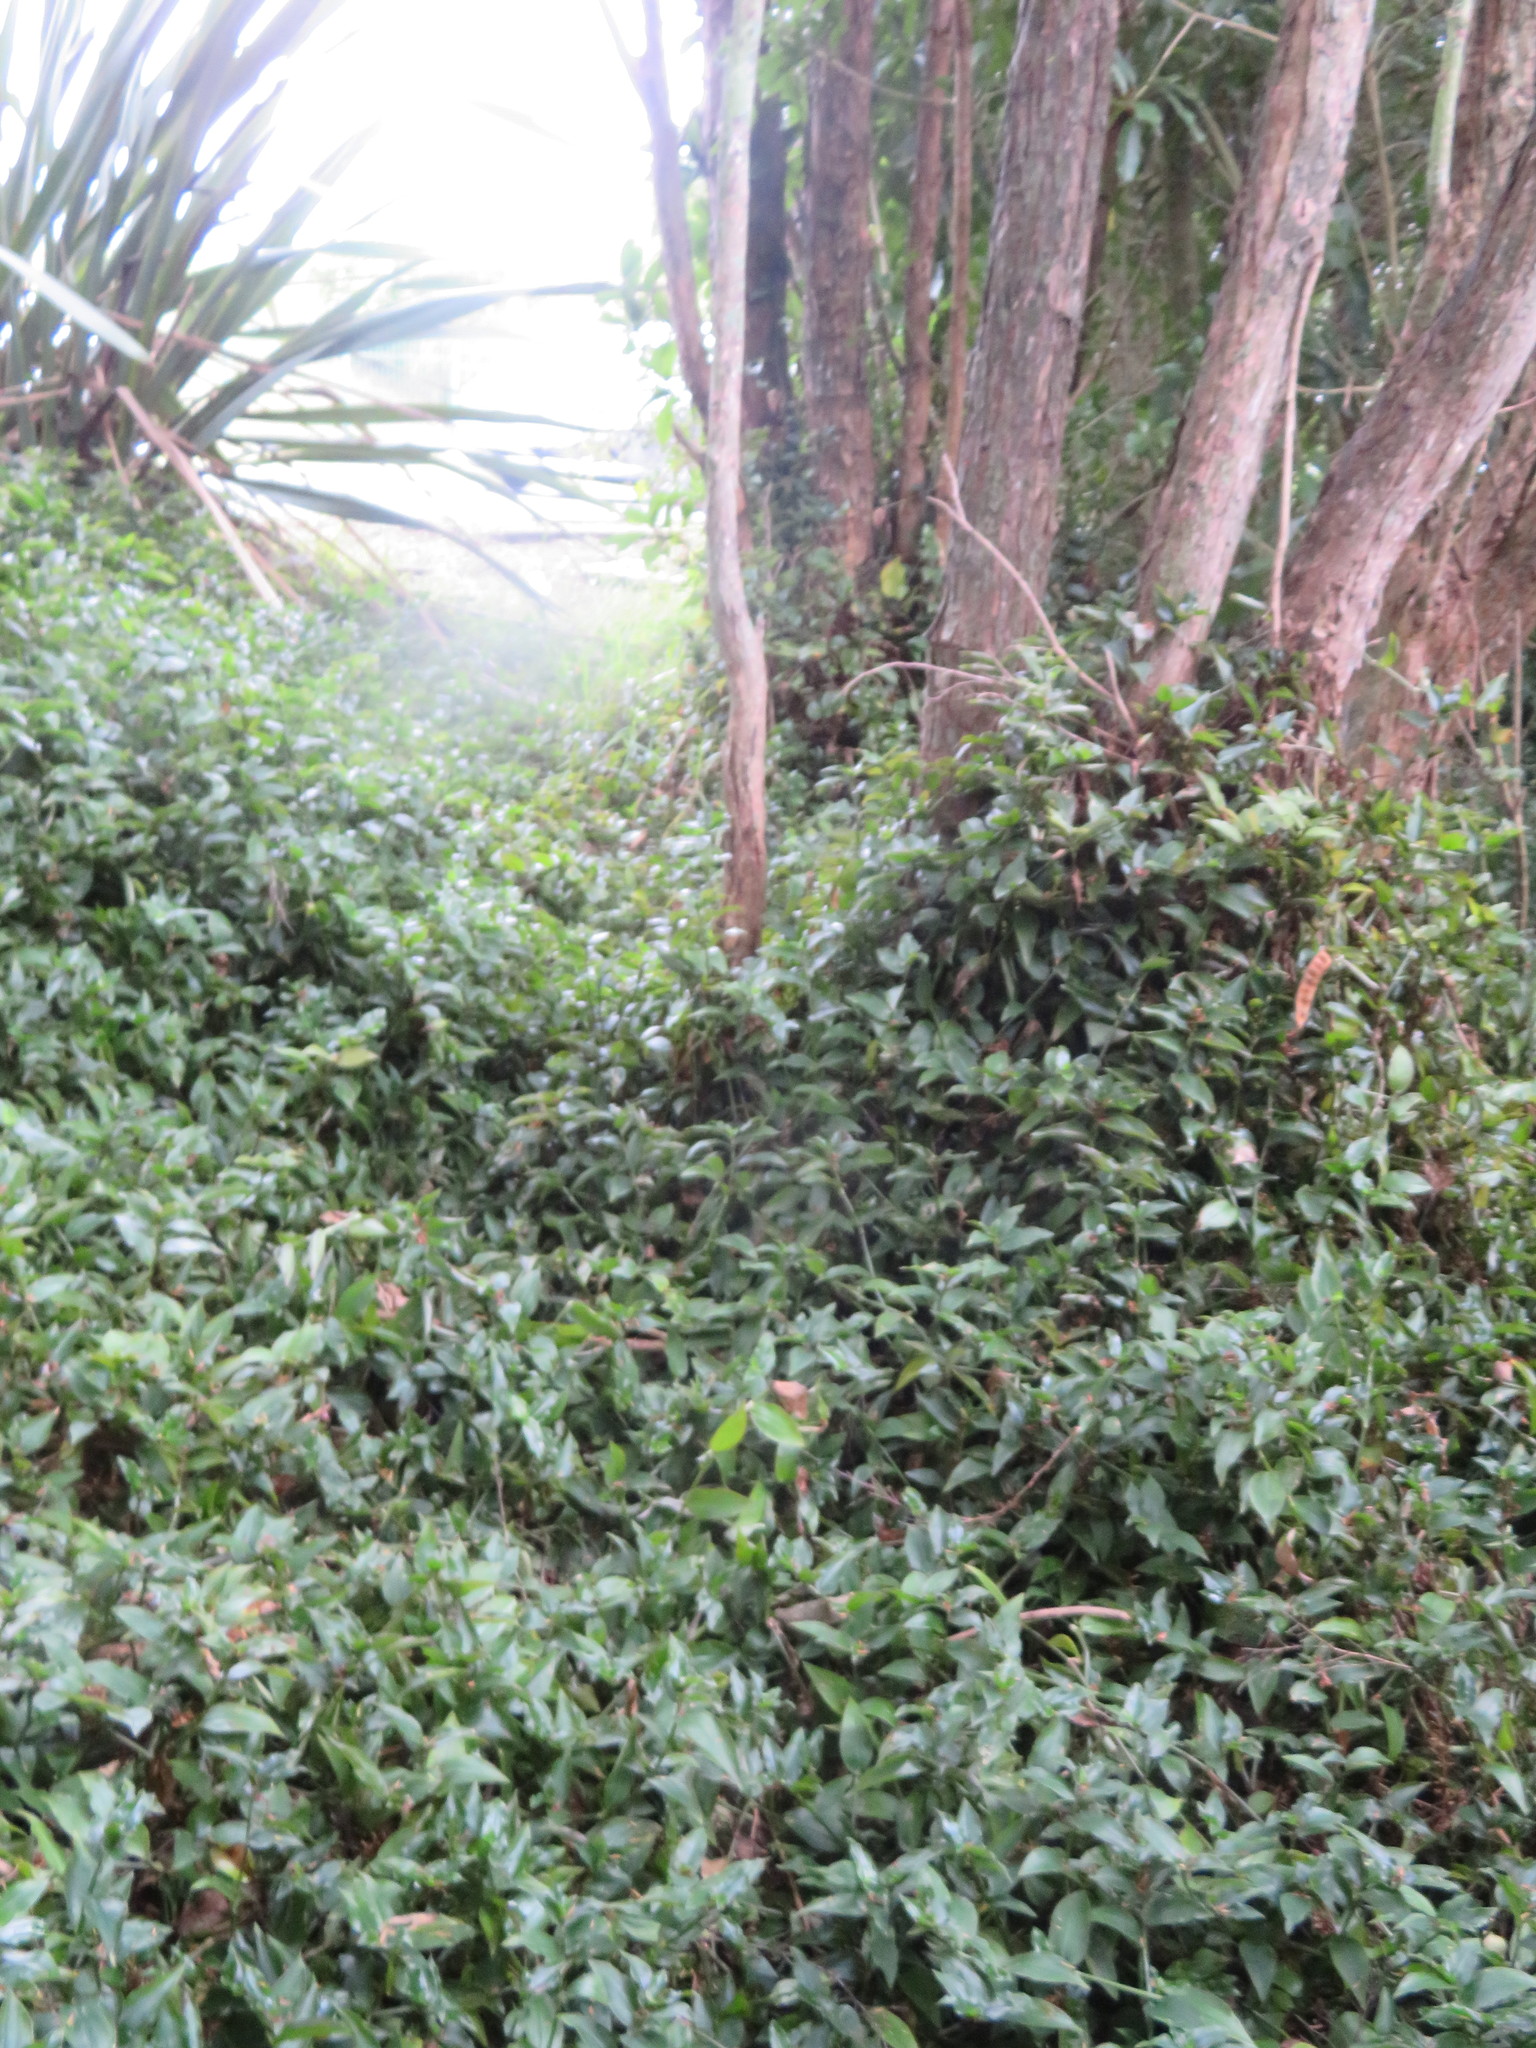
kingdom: Plantae
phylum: Tracheophyta
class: Liliopsida
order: Commelinales
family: Commelinaceae
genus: Tradescantia
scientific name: Tradescantia fluminensis
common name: Wandering-jew
